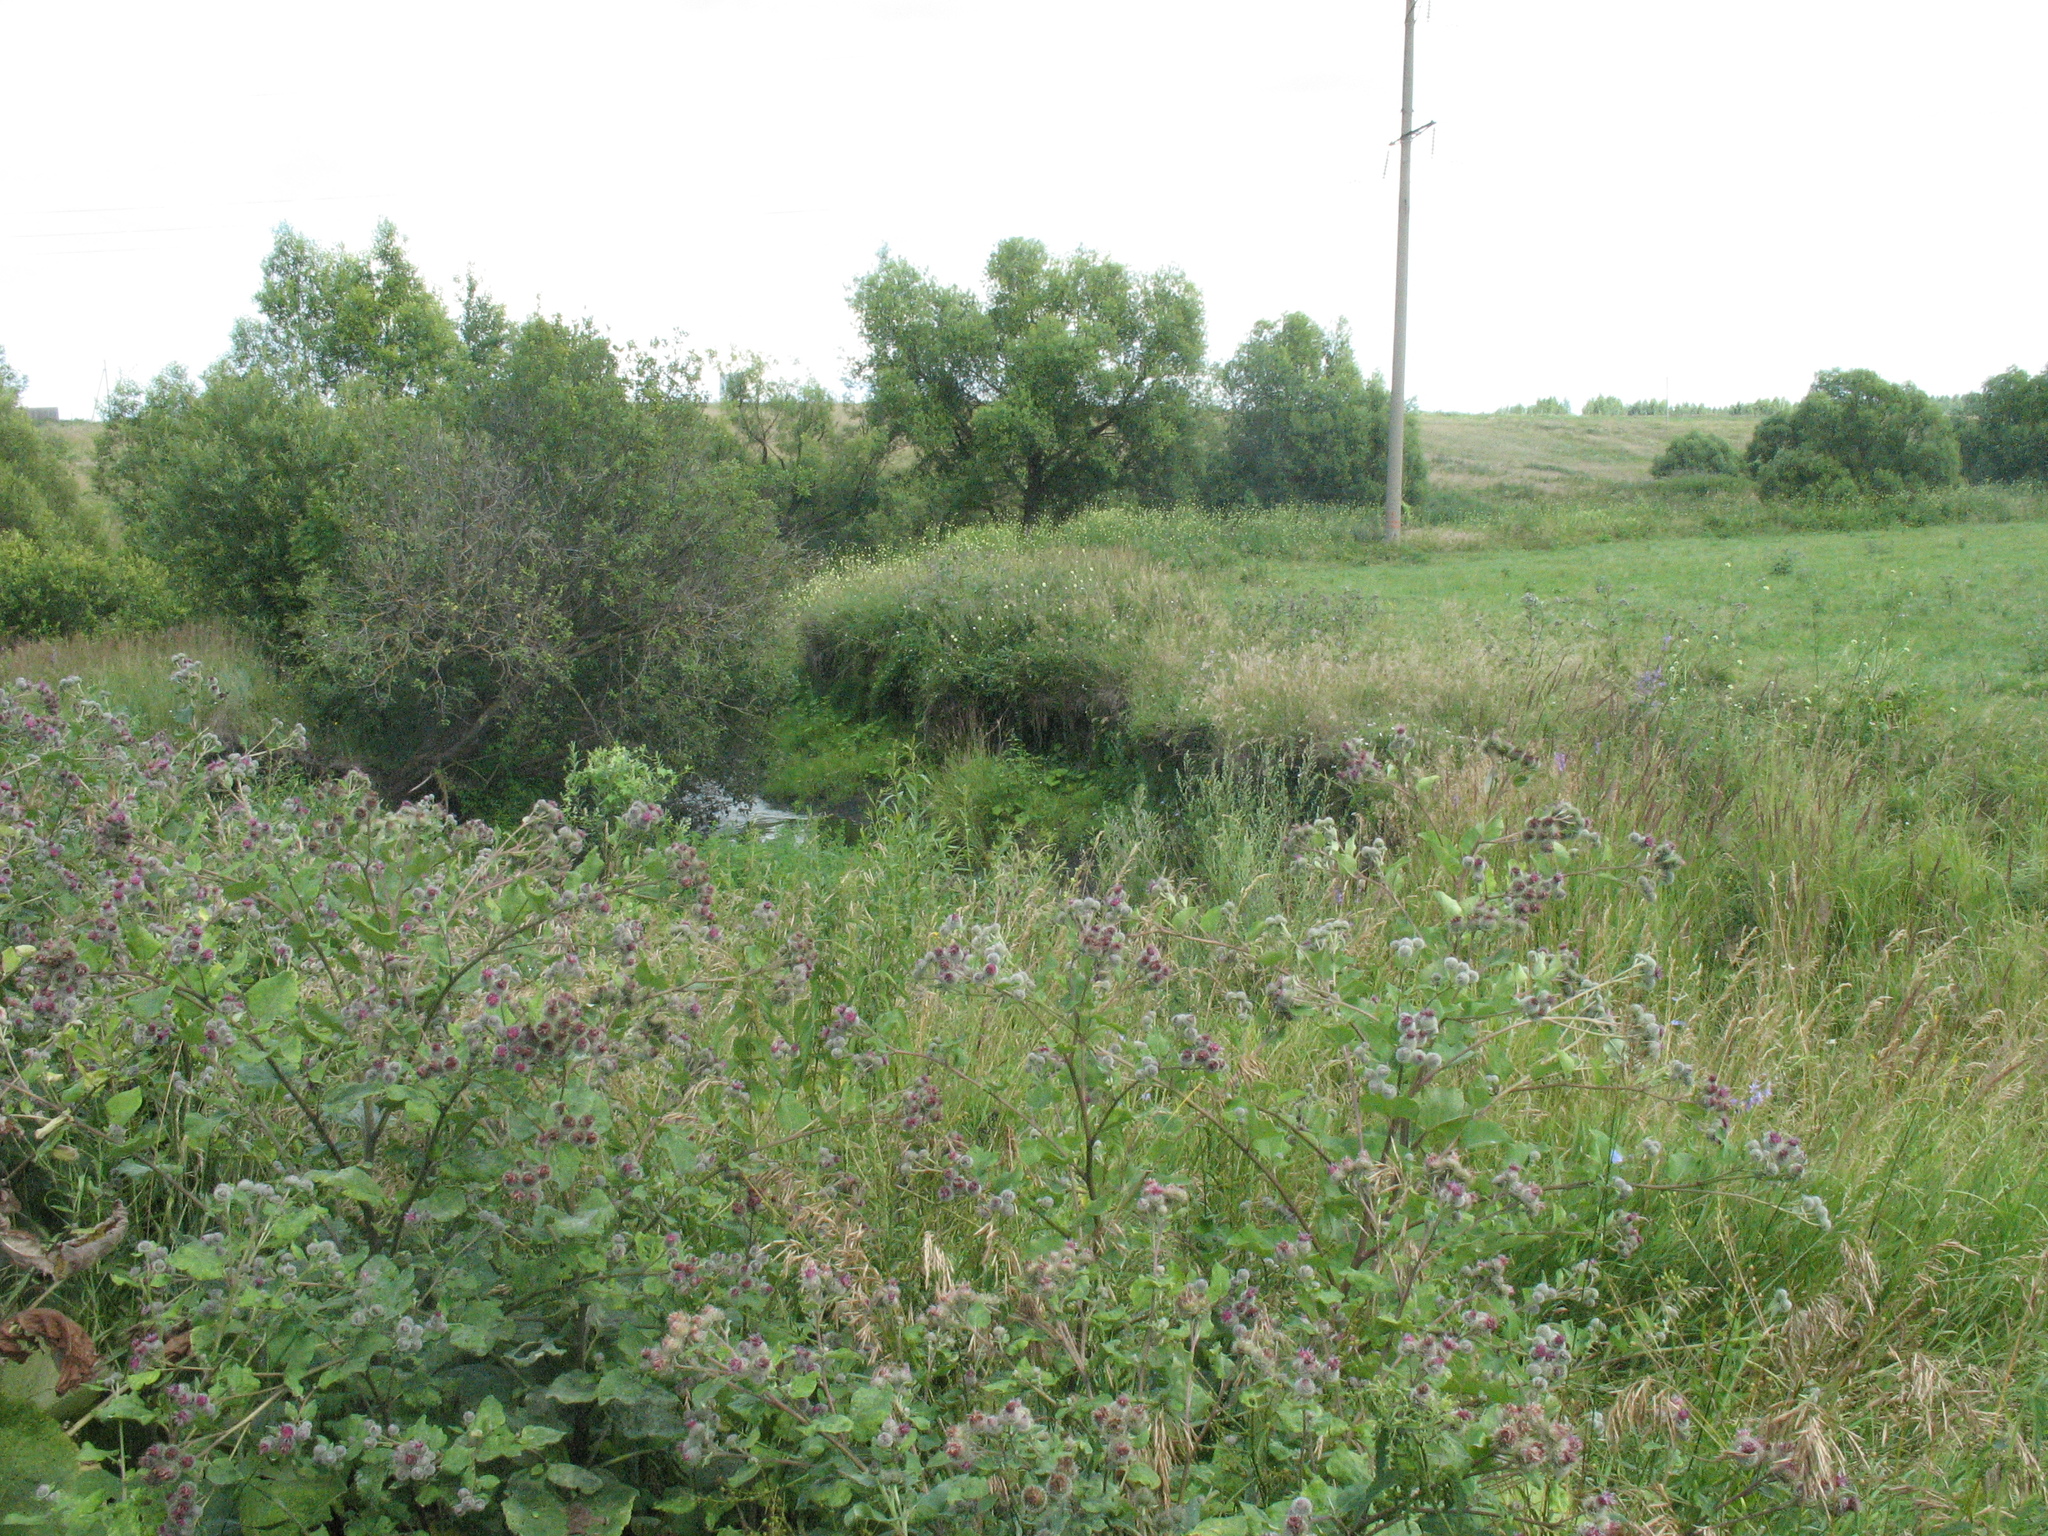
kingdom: Plantae
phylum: Tracheophyta
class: Magnoliopsida
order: Asterales
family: Asteraceae
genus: Arctium
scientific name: Arctium tomentosum
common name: Woolly burdock
